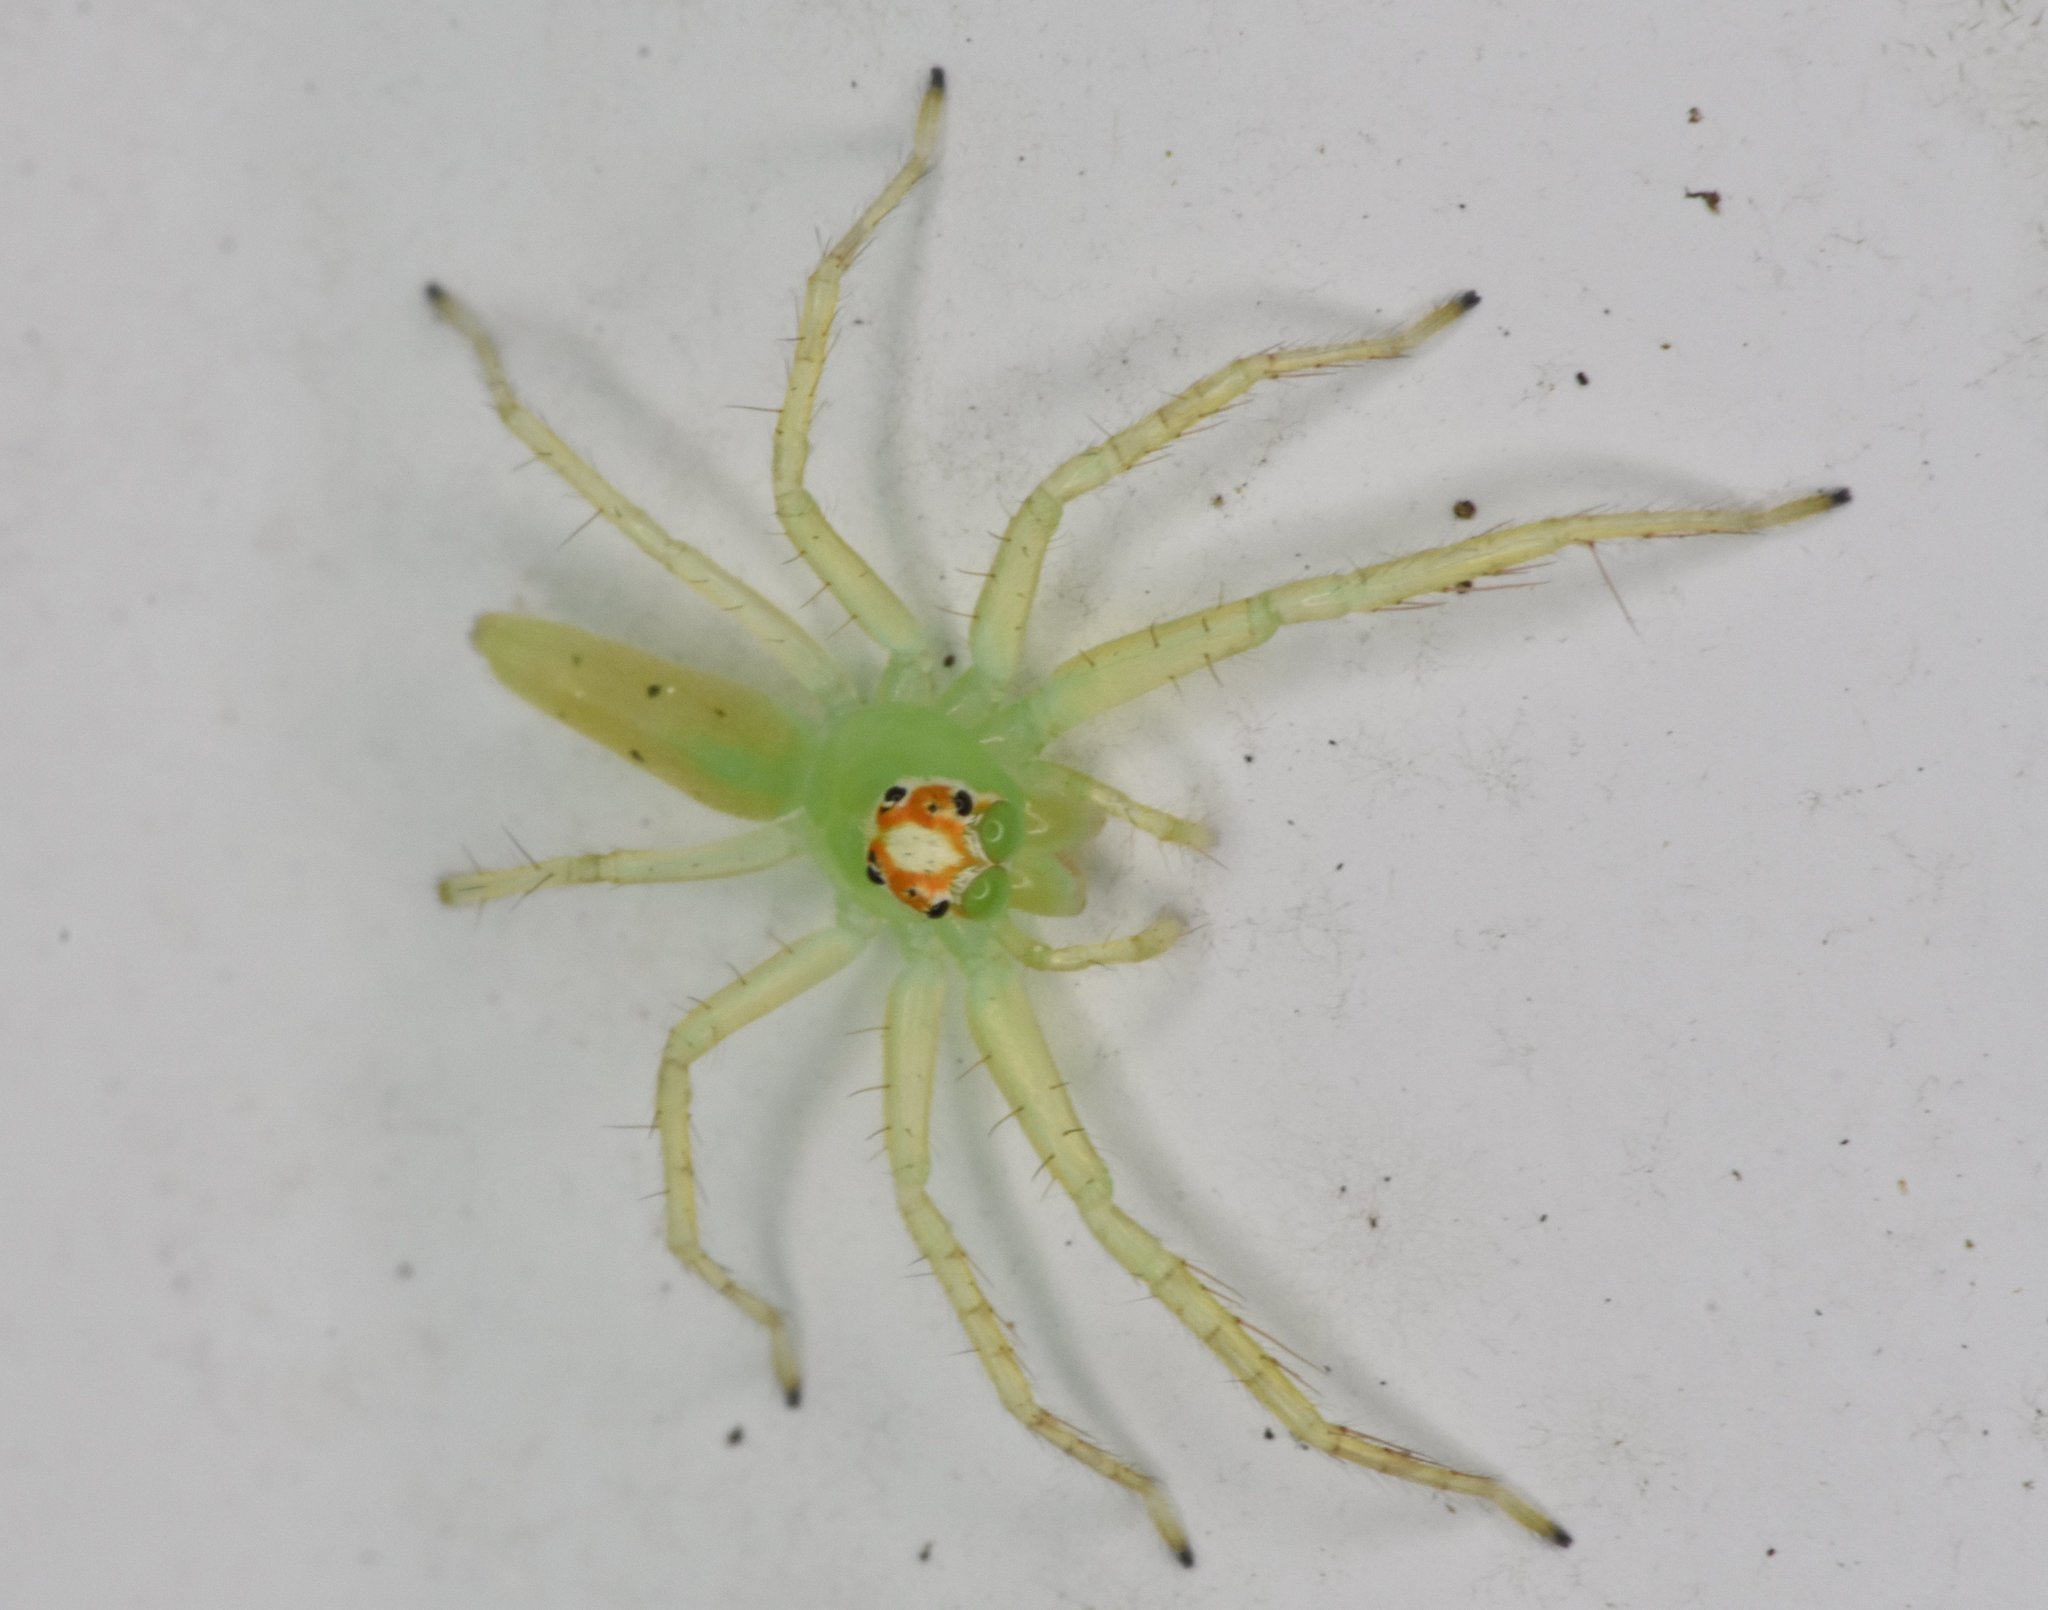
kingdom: Animalia
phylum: Arthropoda
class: Arachnida
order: Araneae
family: Salticidae
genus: Lyssomanes
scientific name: Lyssomanes viridis
